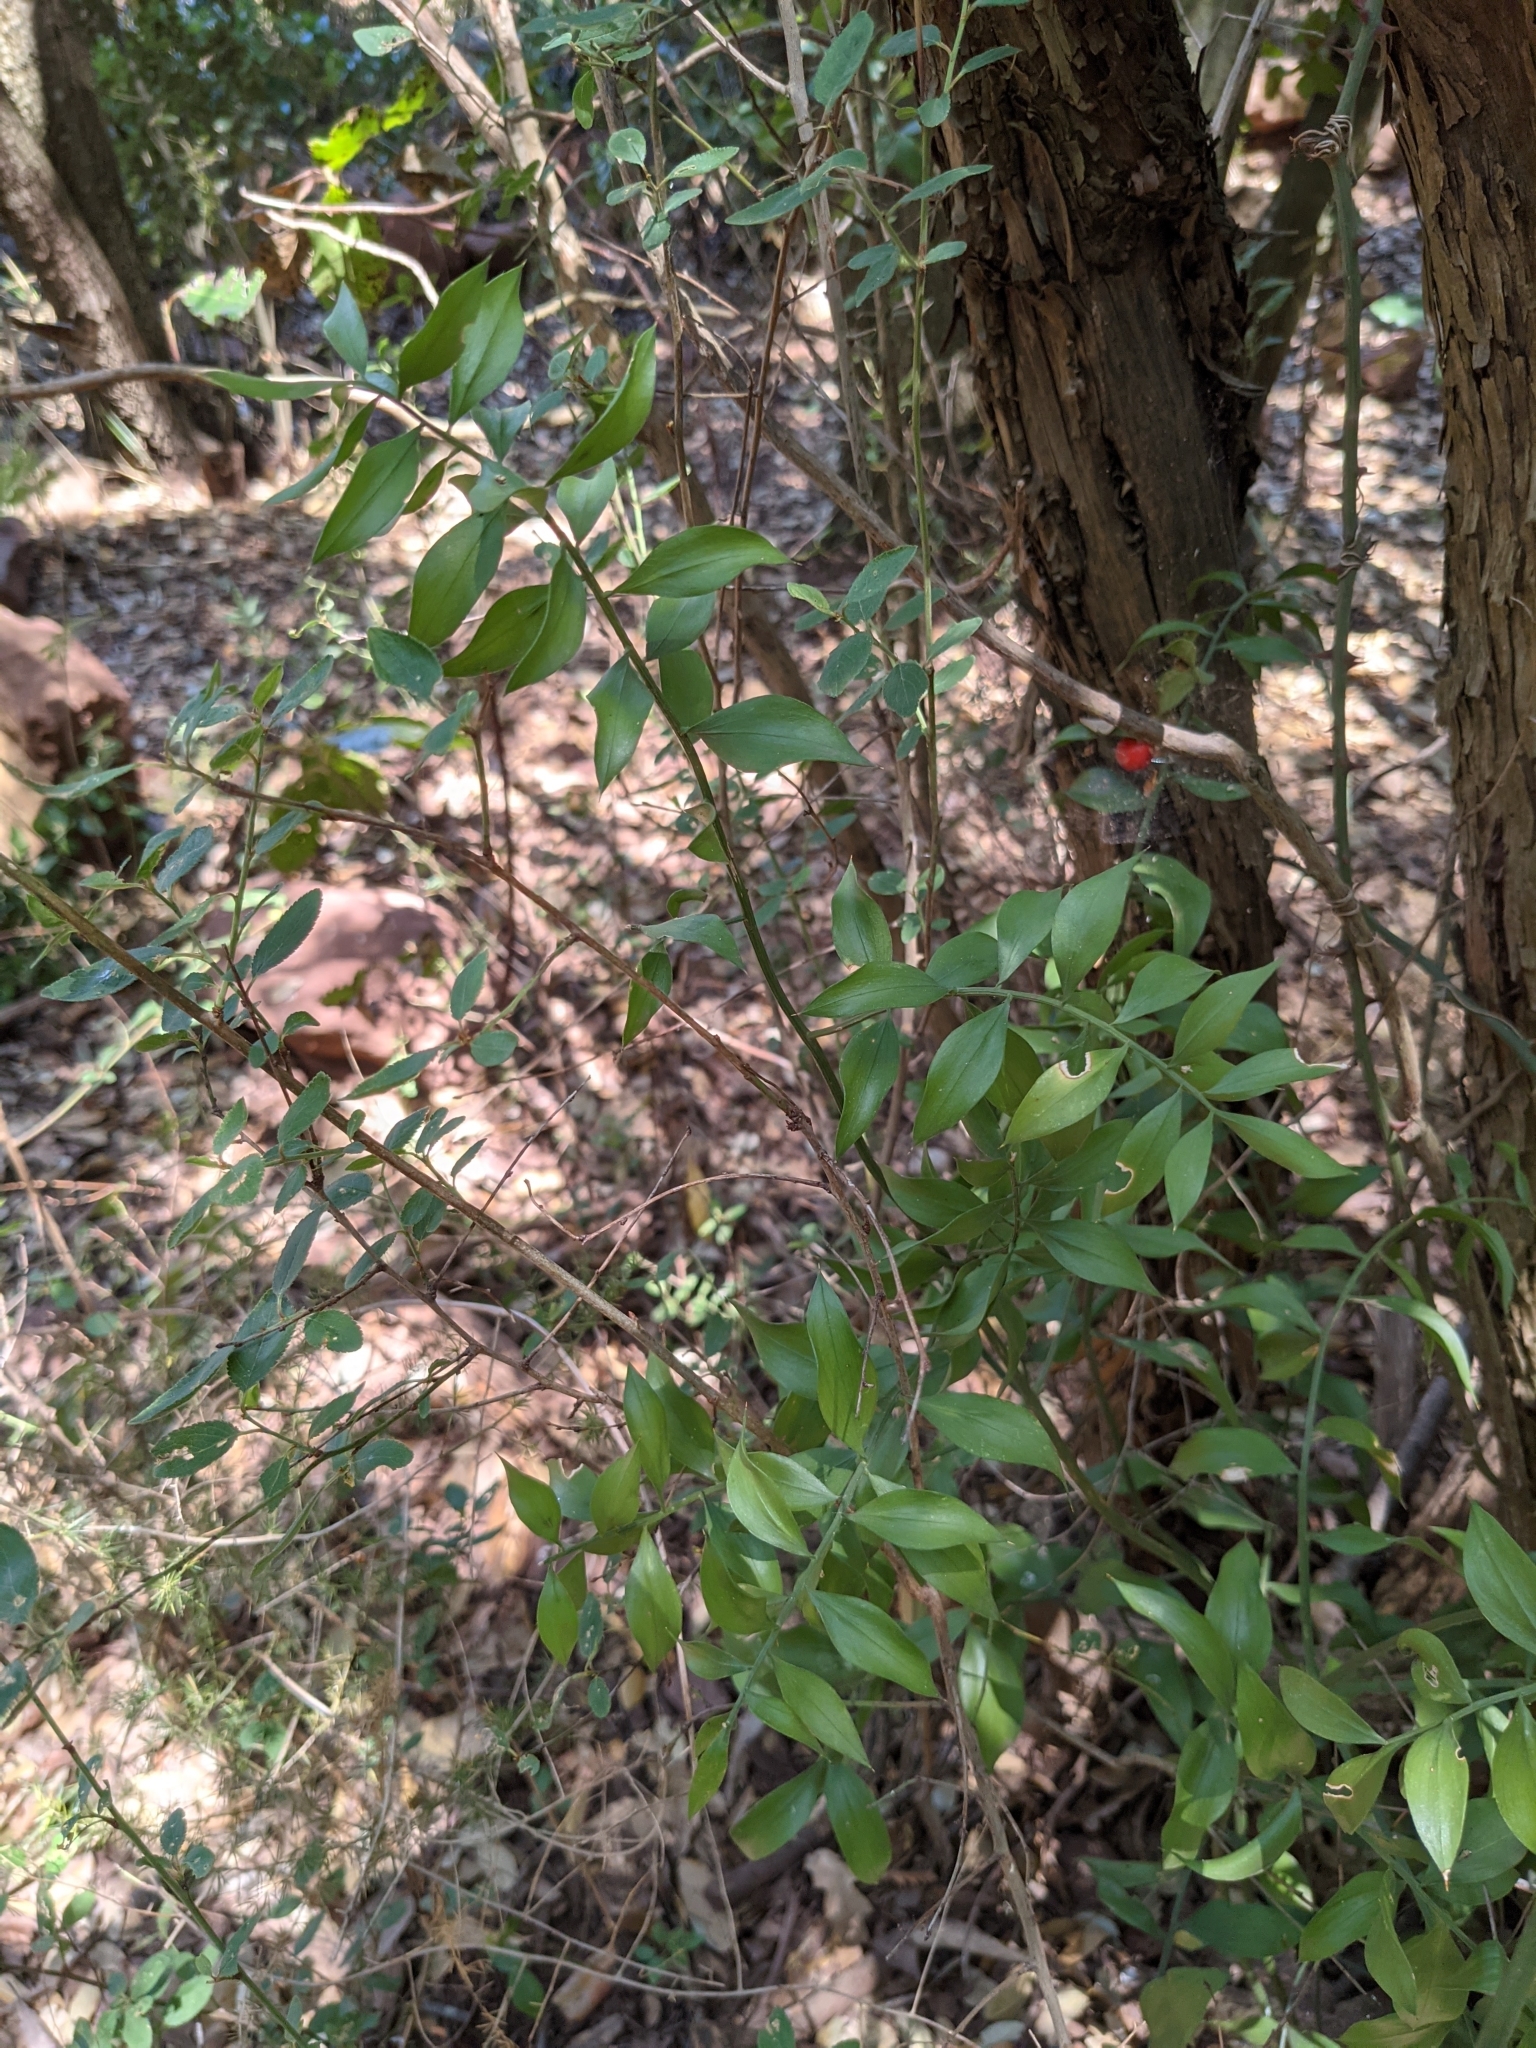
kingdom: Plantae
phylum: Tracheophyta
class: Liliopsida
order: Asparagales
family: Asparagaceae
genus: Ruscus
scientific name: Ruscus aculeatus
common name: Butcher's-broom
